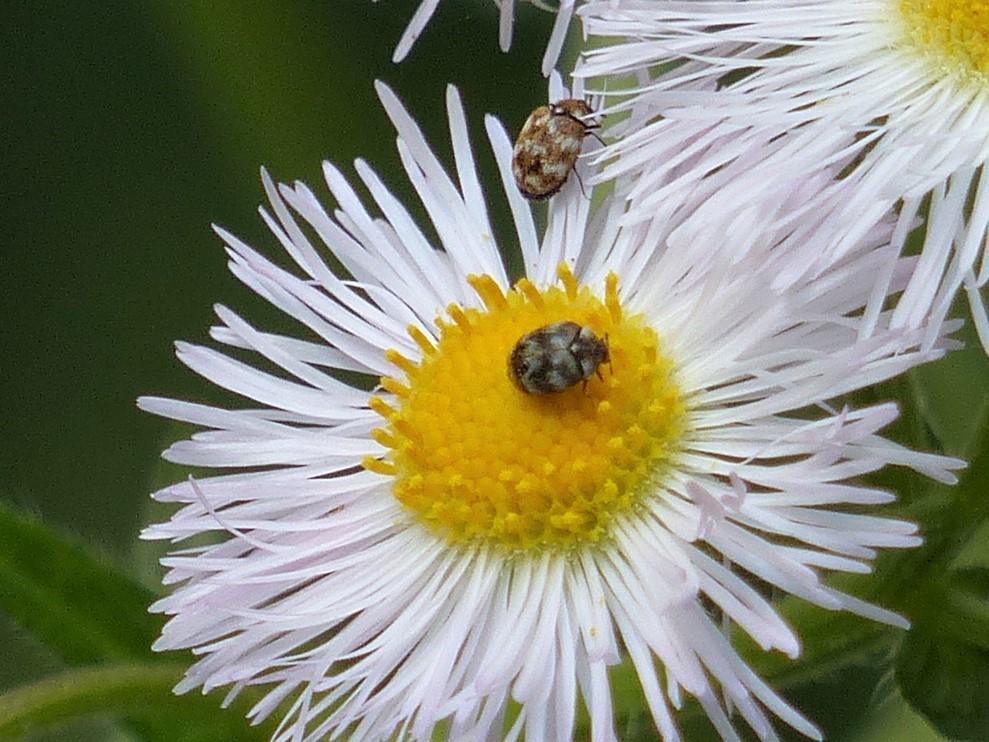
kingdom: Animalia
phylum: Arthropoda
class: Insecta
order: Coleoptera
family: Dermestidae
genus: Anthrenus
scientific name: Anthrenus verbasci
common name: Varied carpet beetle
